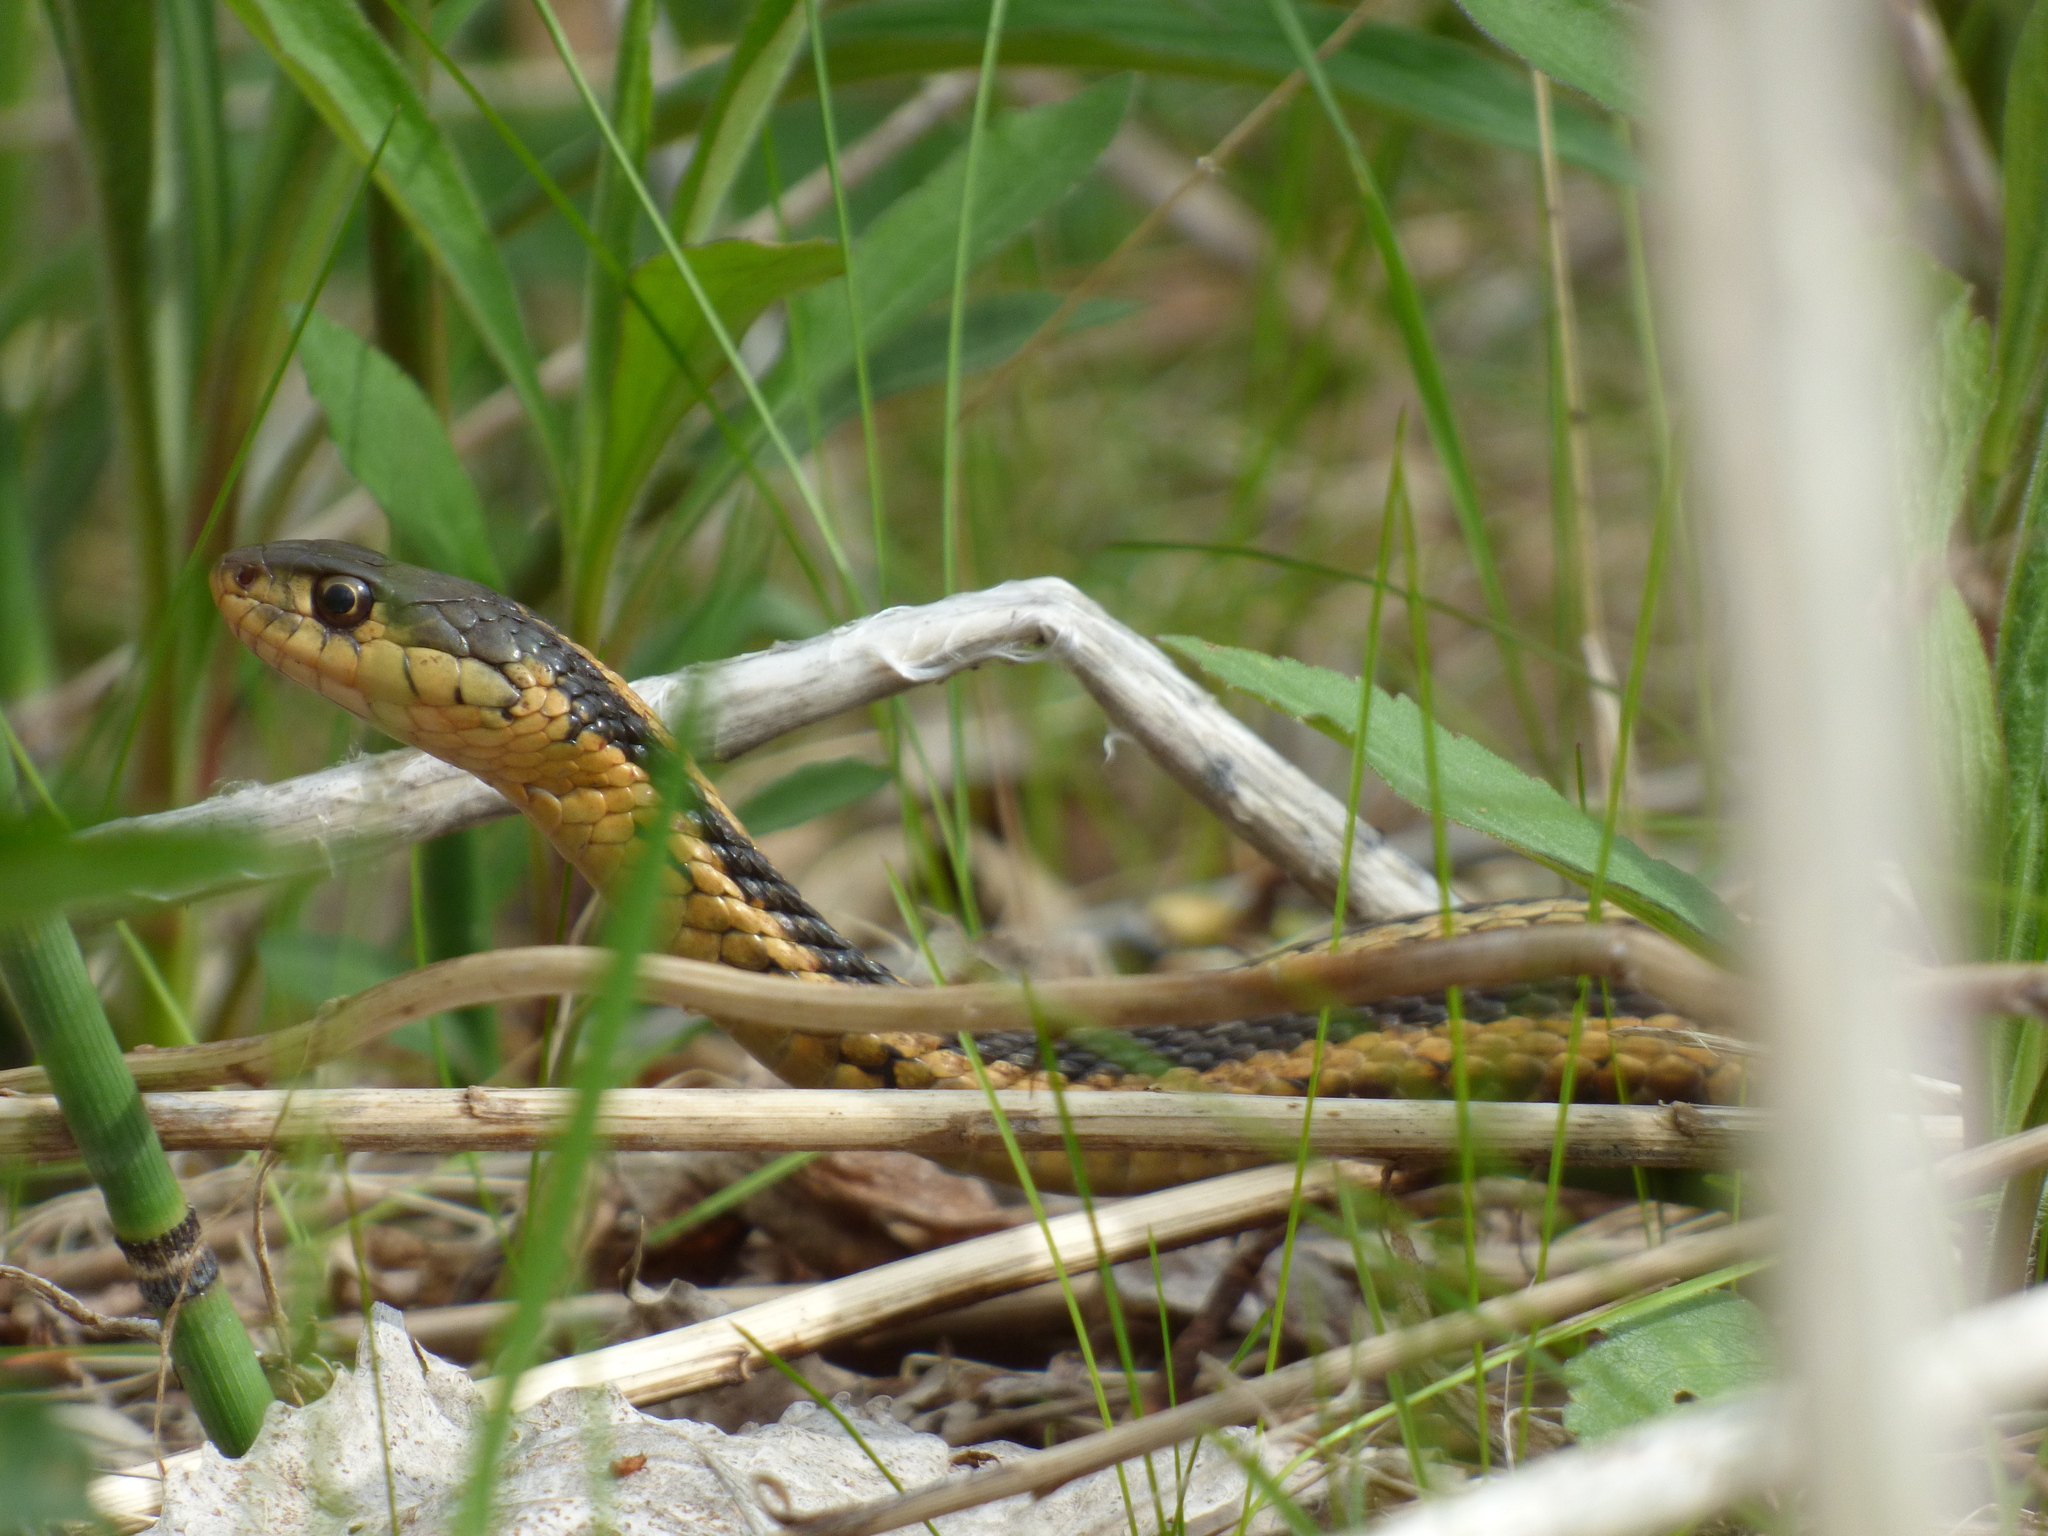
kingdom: Animalia
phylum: Chordata
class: Squamata
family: Colubridae
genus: Thamnophis
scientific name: Thamnophis sirtalis
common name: Common garter snake
